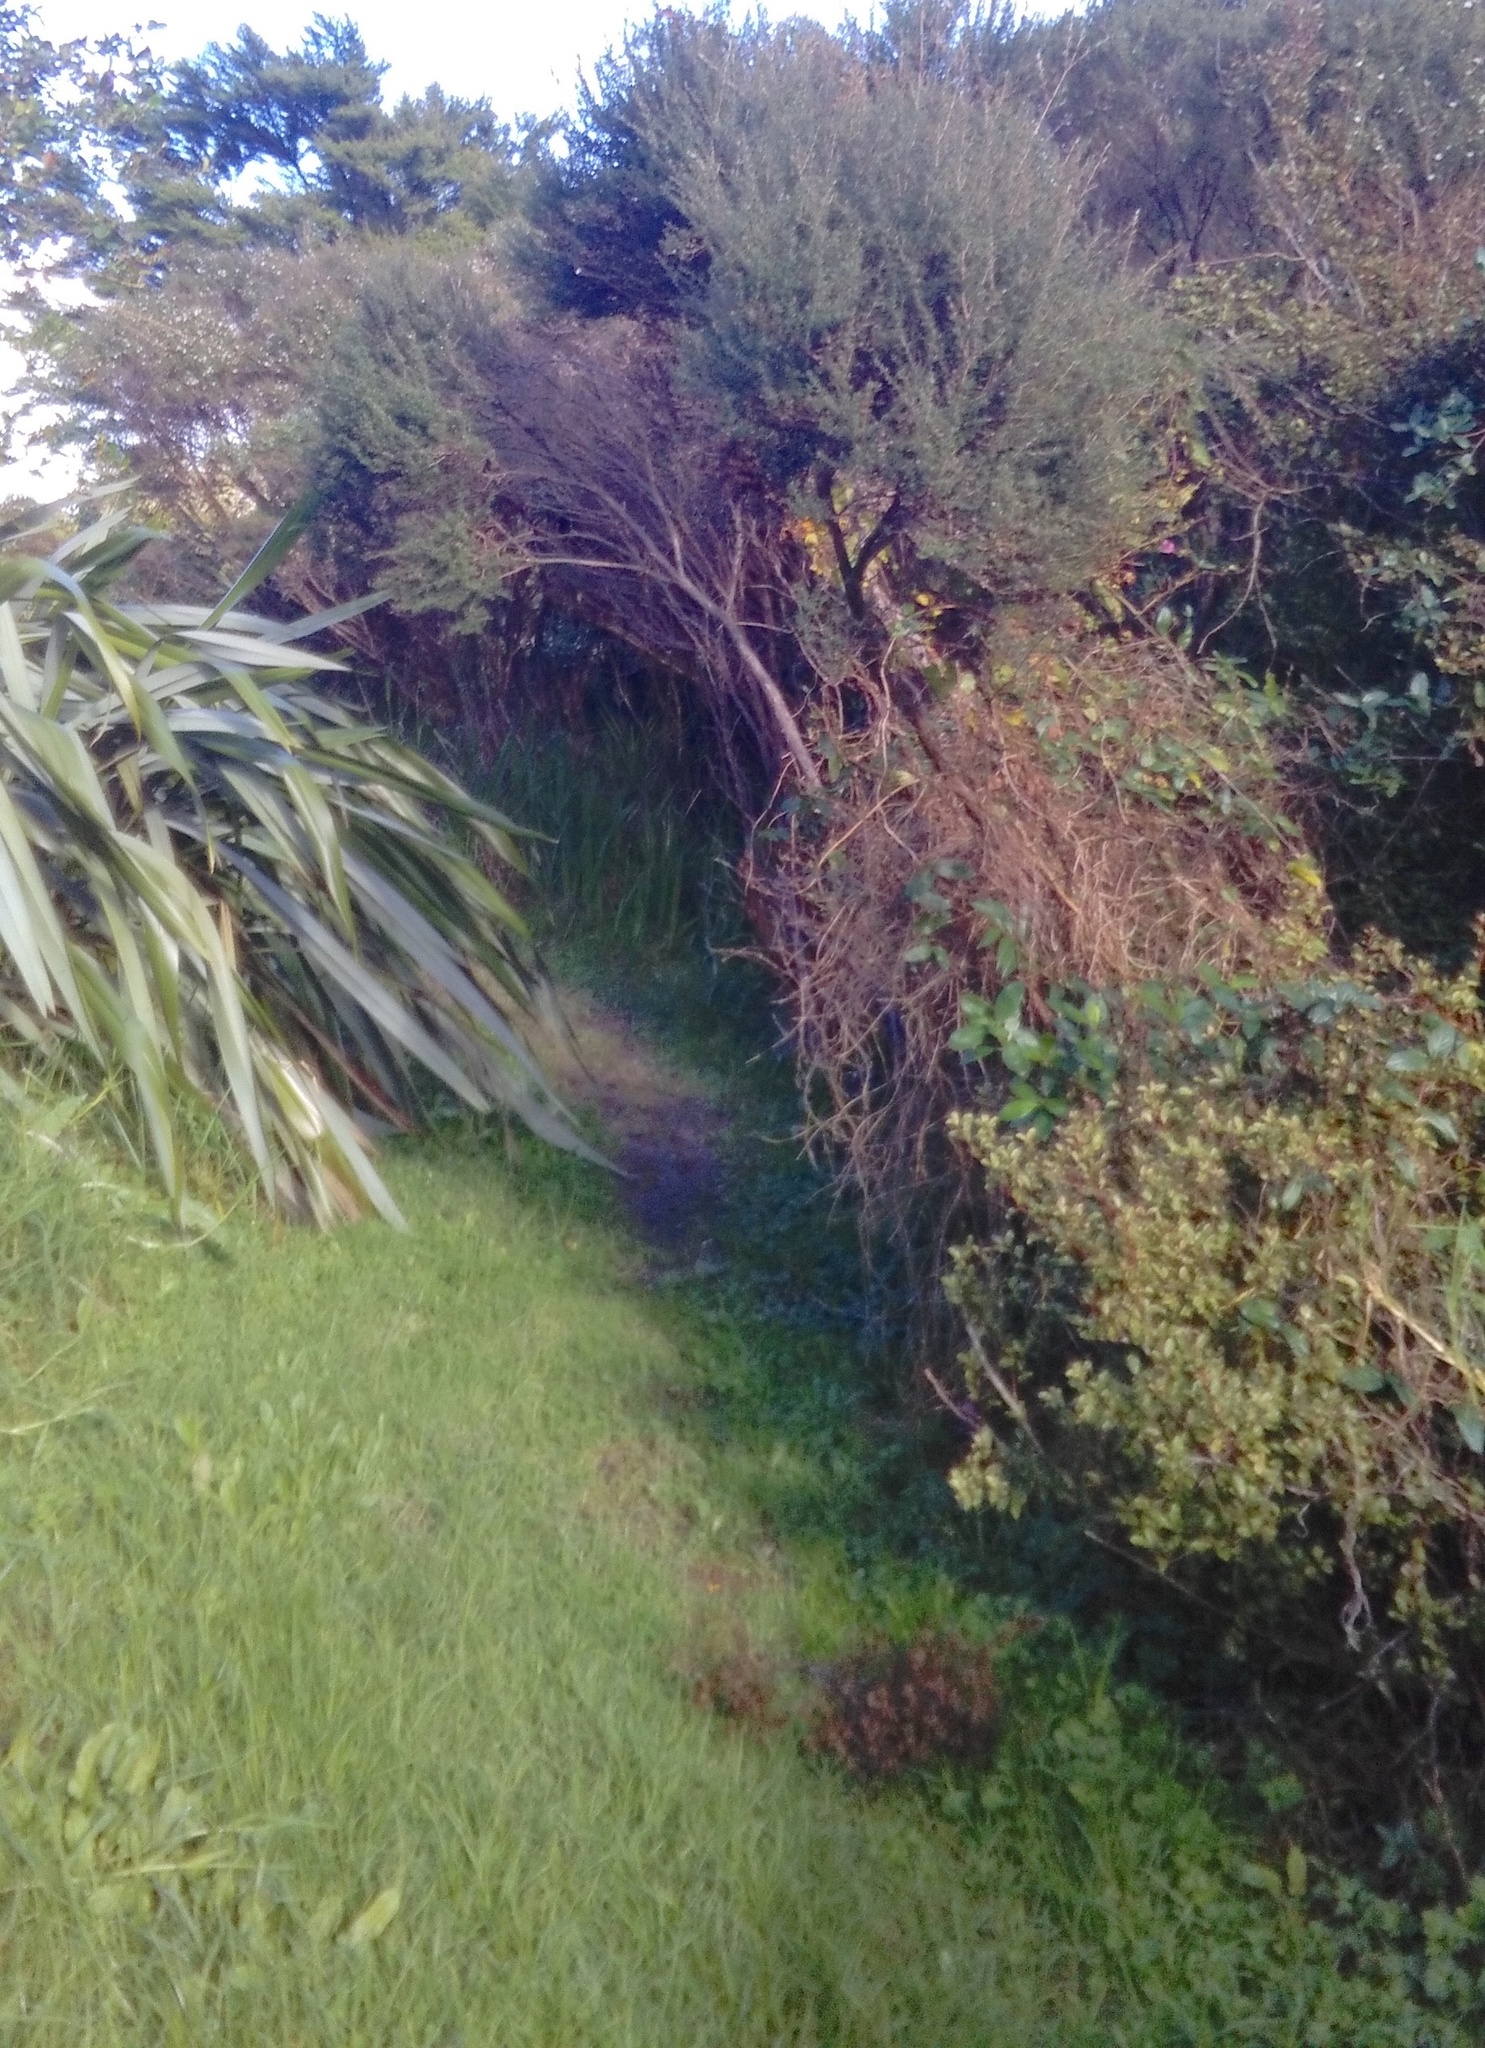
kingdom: Plantae
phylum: Tracheophyta
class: Magnoliopsida
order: Gentianales
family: Rubiaceae
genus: Coprosma
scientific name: Coprosma robusta
